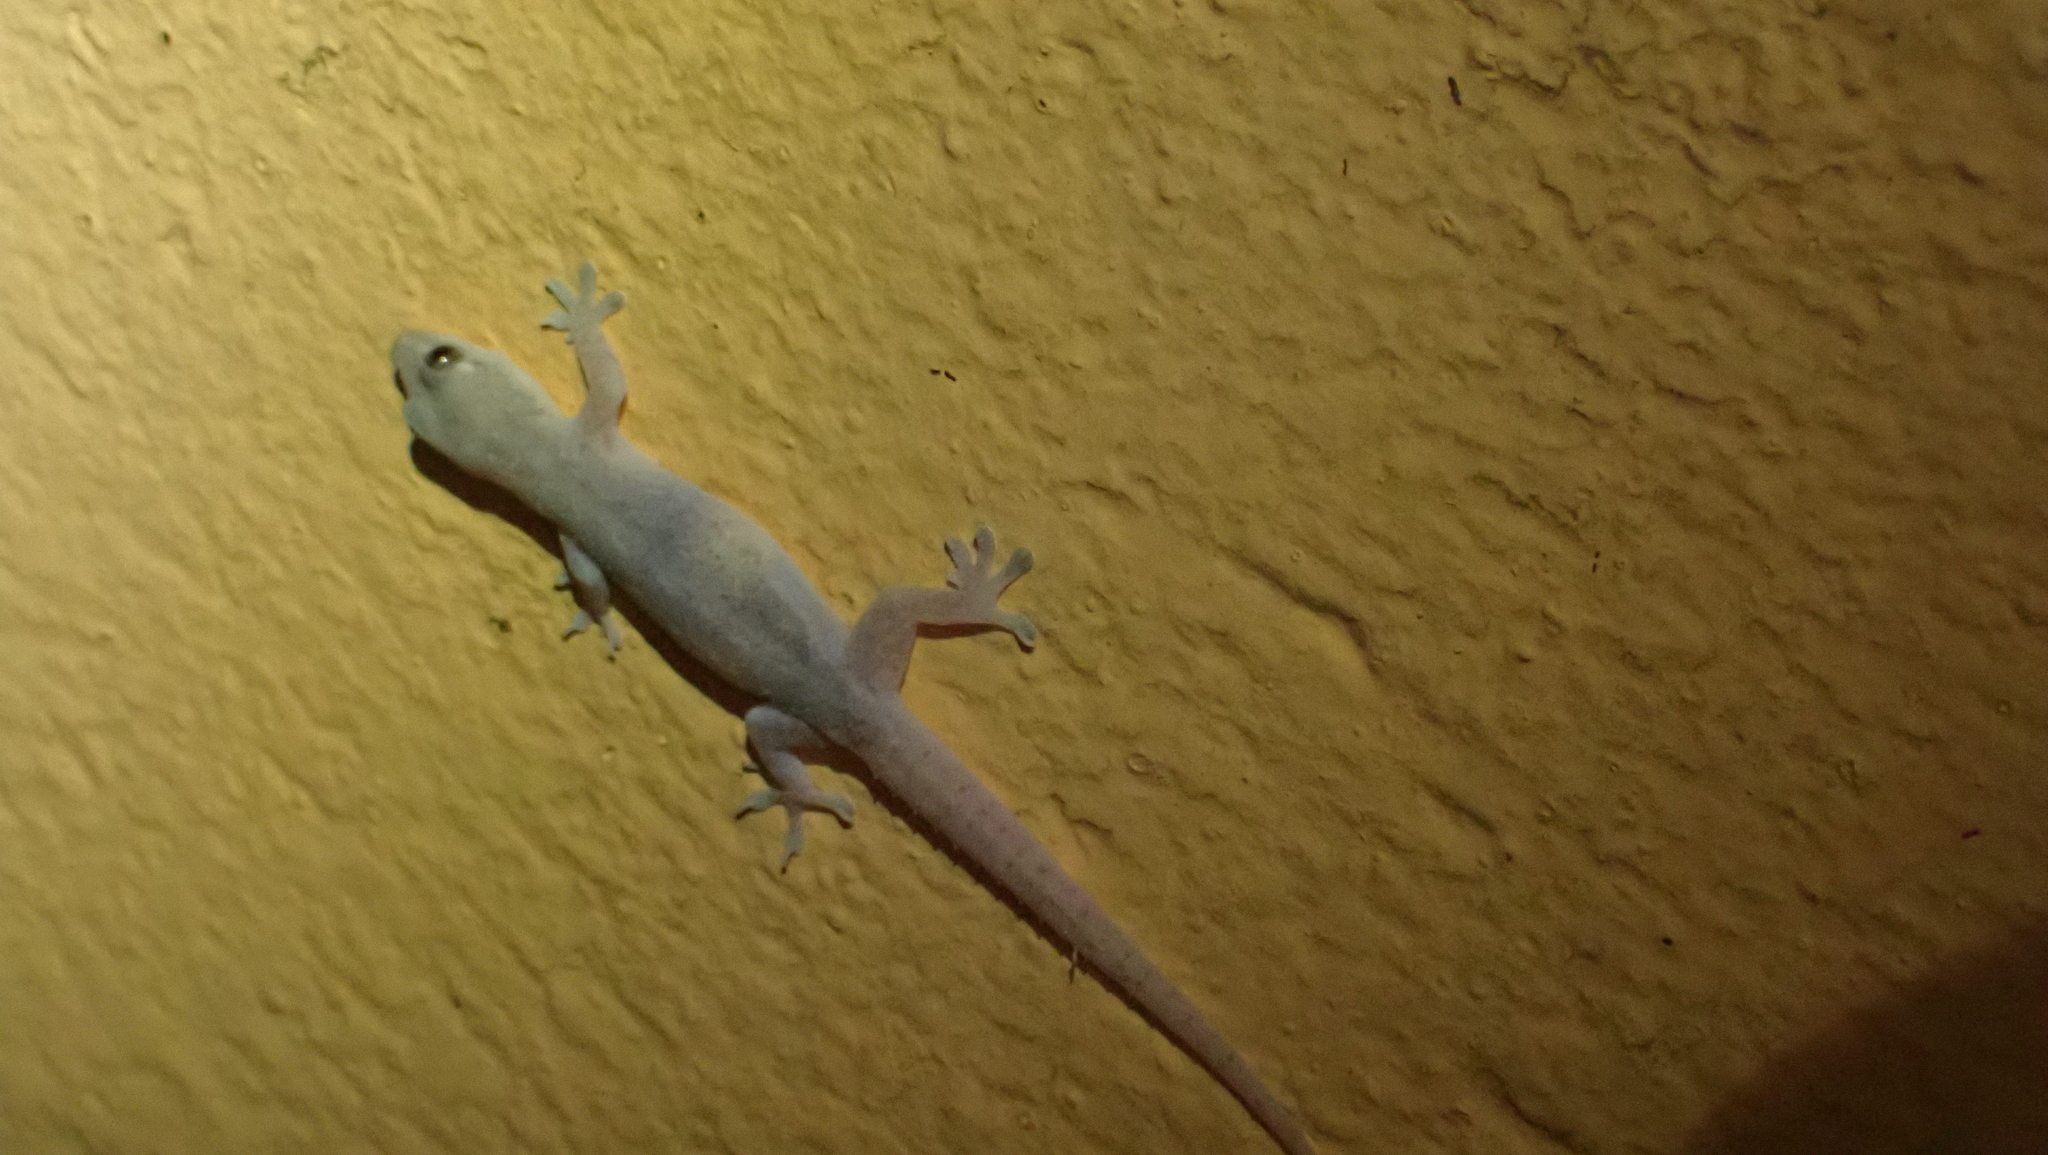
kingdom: Animalia
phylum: Chordata
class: Squamata
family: Gekkonidae
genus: Hemidactylus
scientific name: Hemidactylus frenatus
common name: Common house gecko
